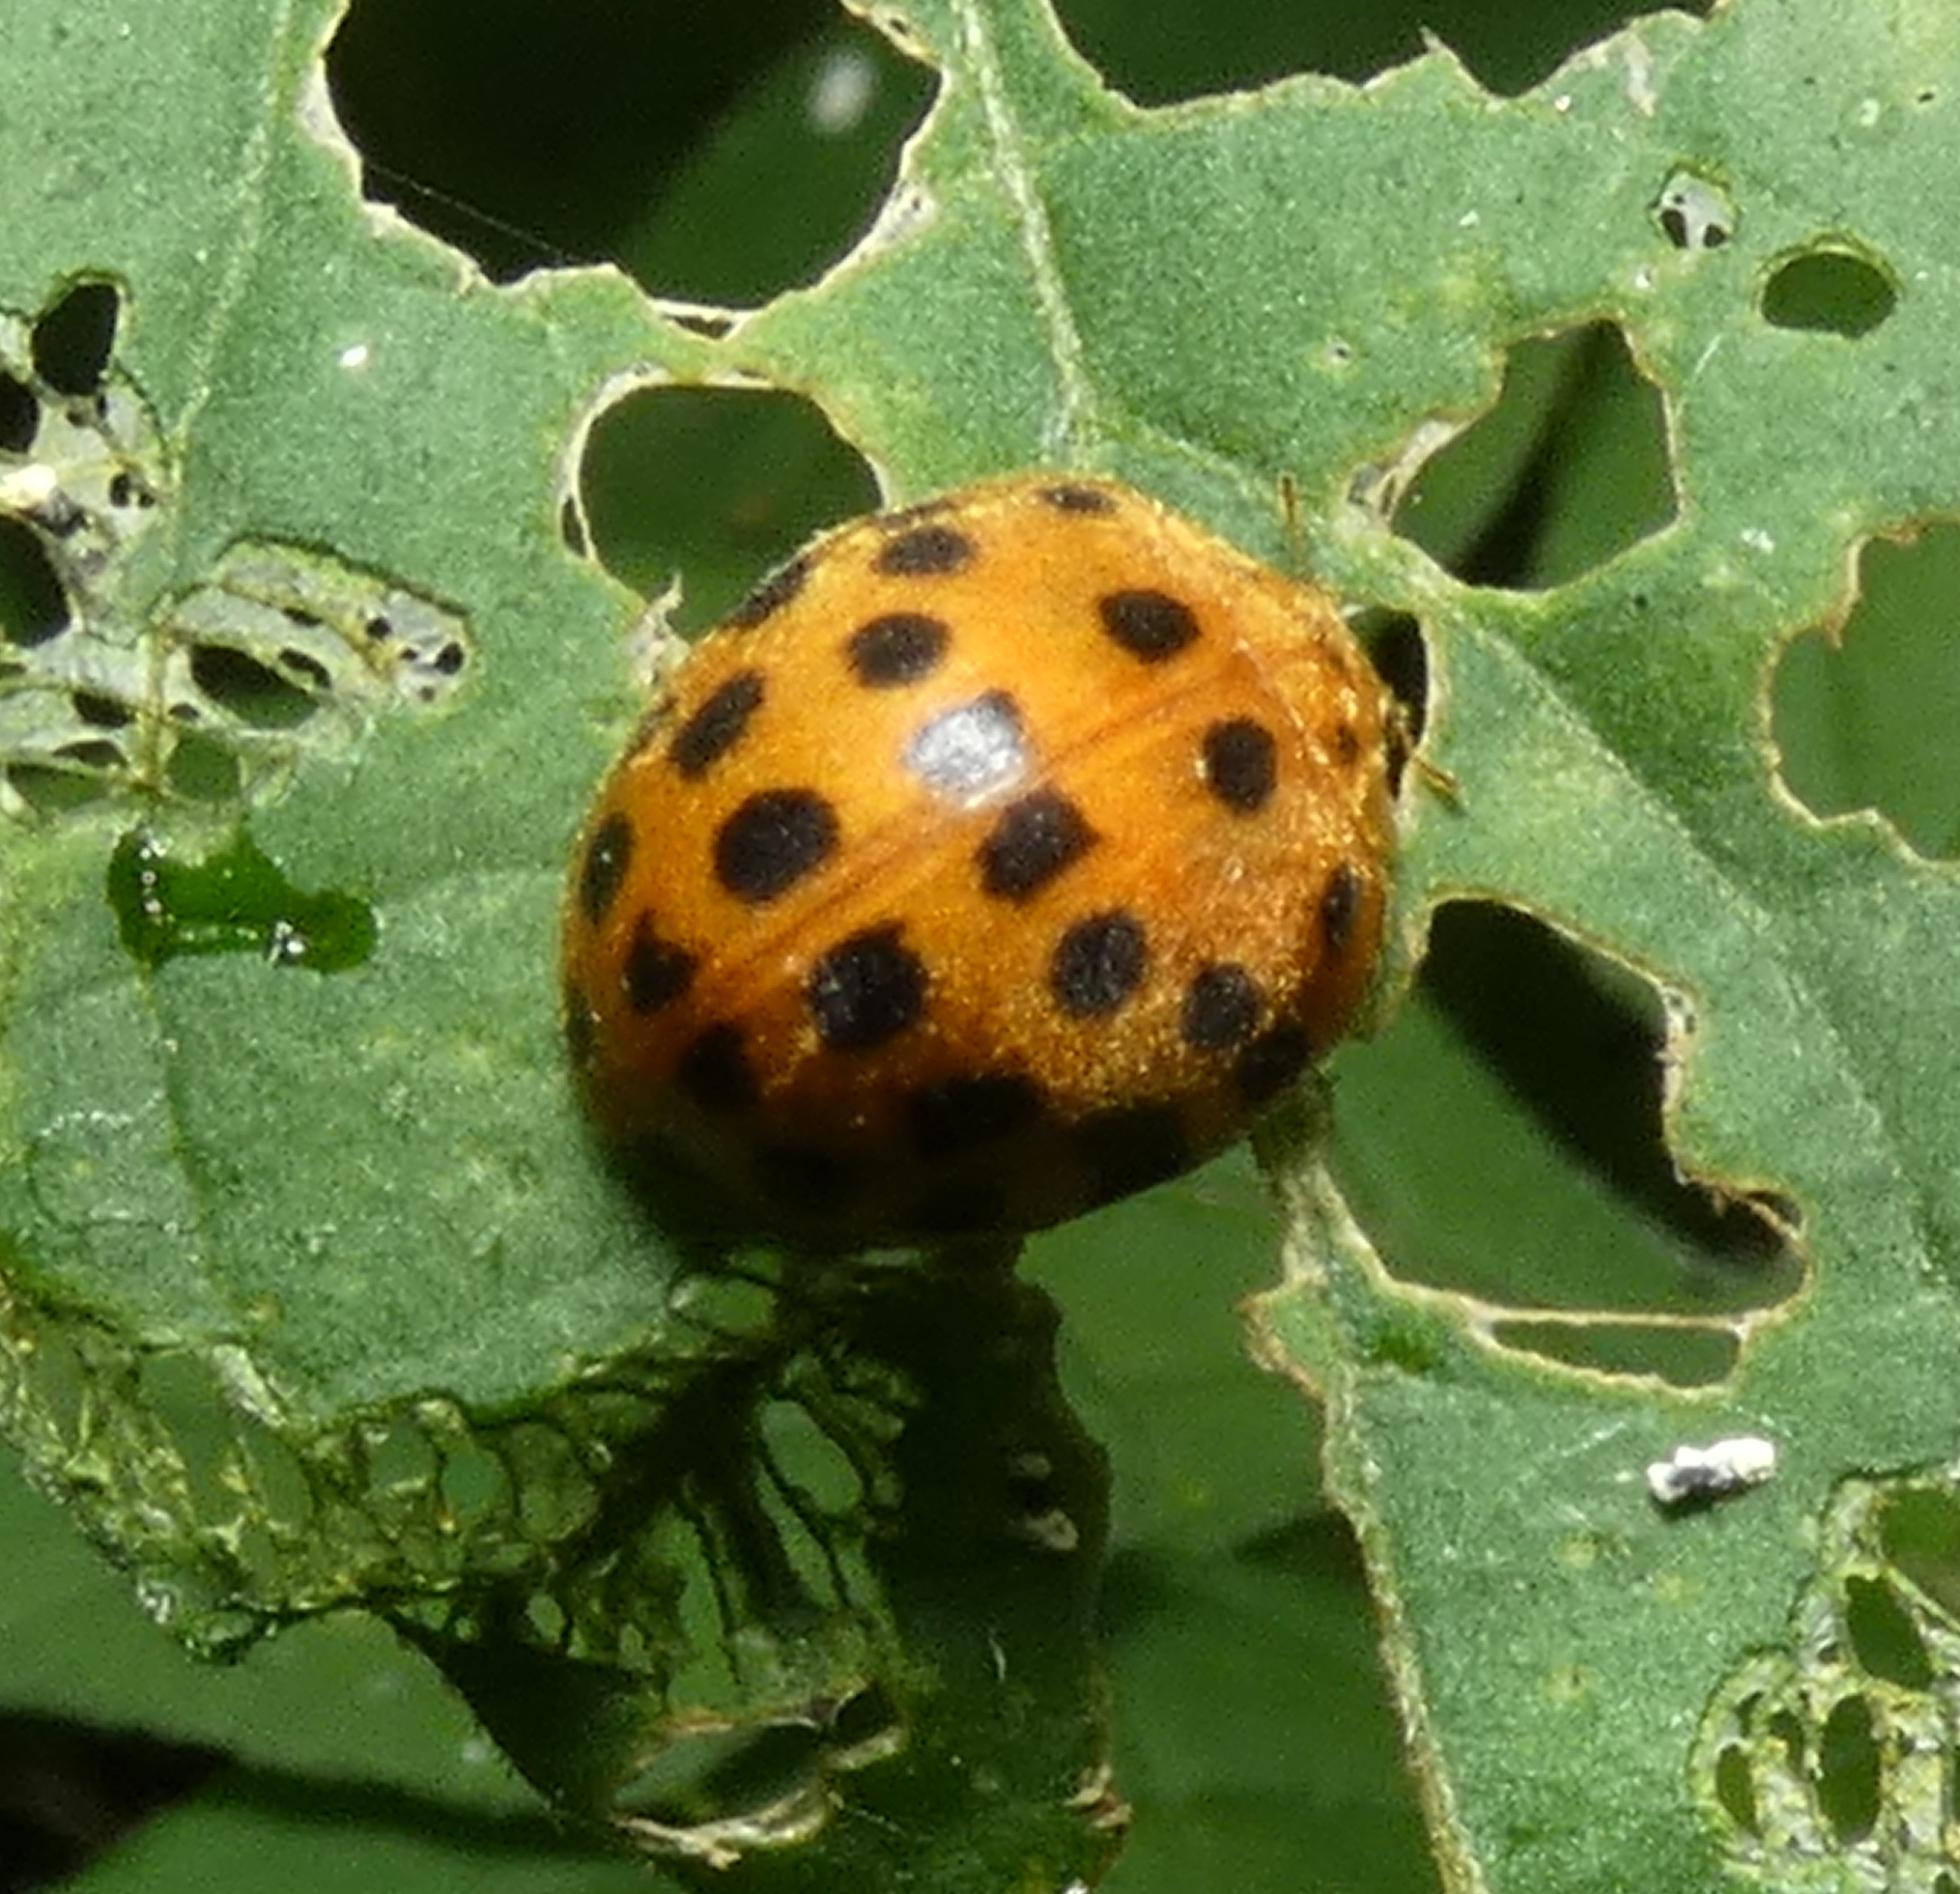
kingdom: Animalia
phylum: Arthropoda
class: Insecta
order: Coleoptera
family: Coccinellidae
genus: Henosepilachna
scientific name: Henosepilachna vigintioctopunctata
